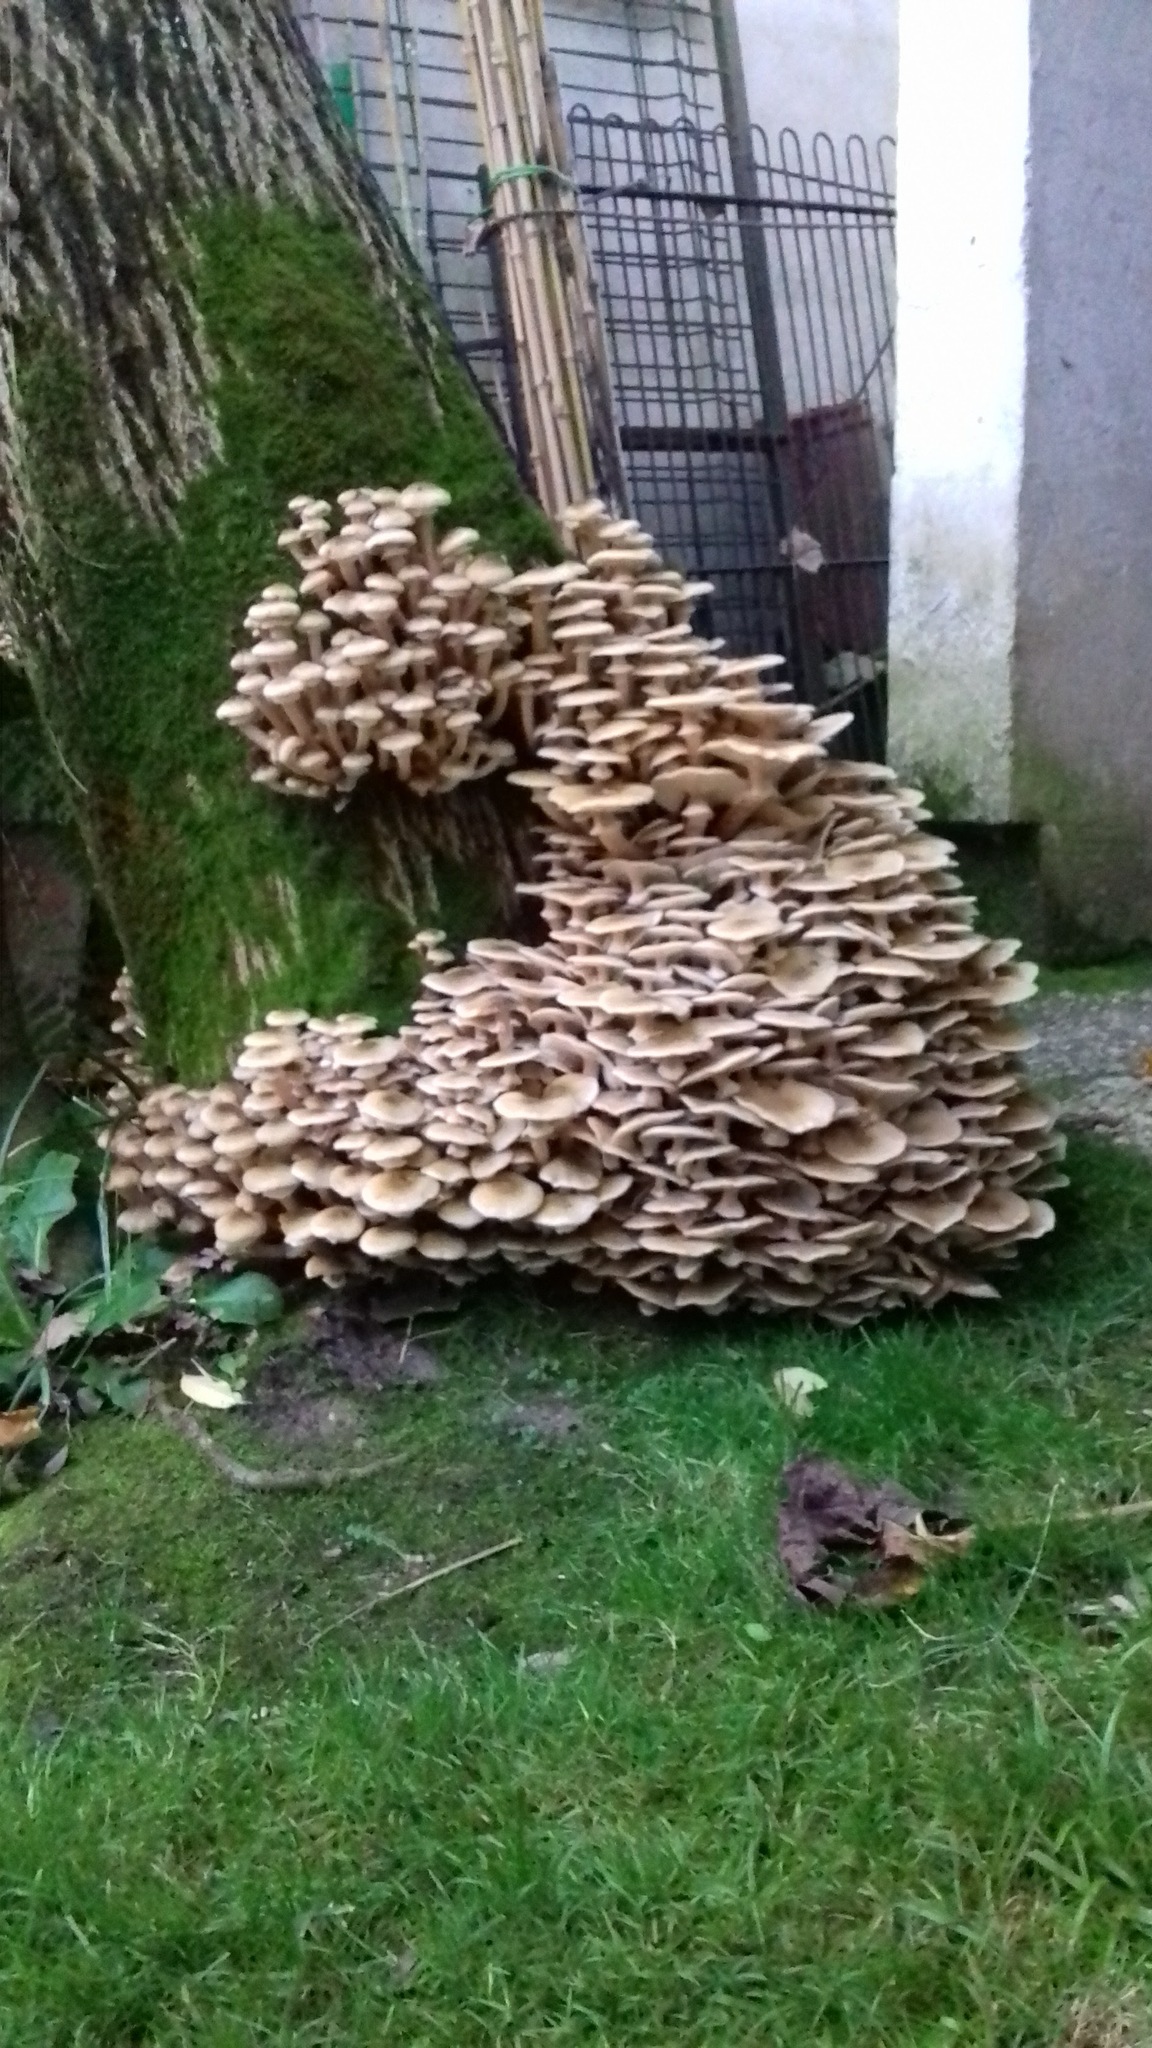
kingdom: Fungi
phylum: Basidiomycota
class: Agaricomycetes
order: Agaricales
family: Physalacriaceae
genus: Armillaria
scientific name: Armillaria mellea
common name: Honey fungus
